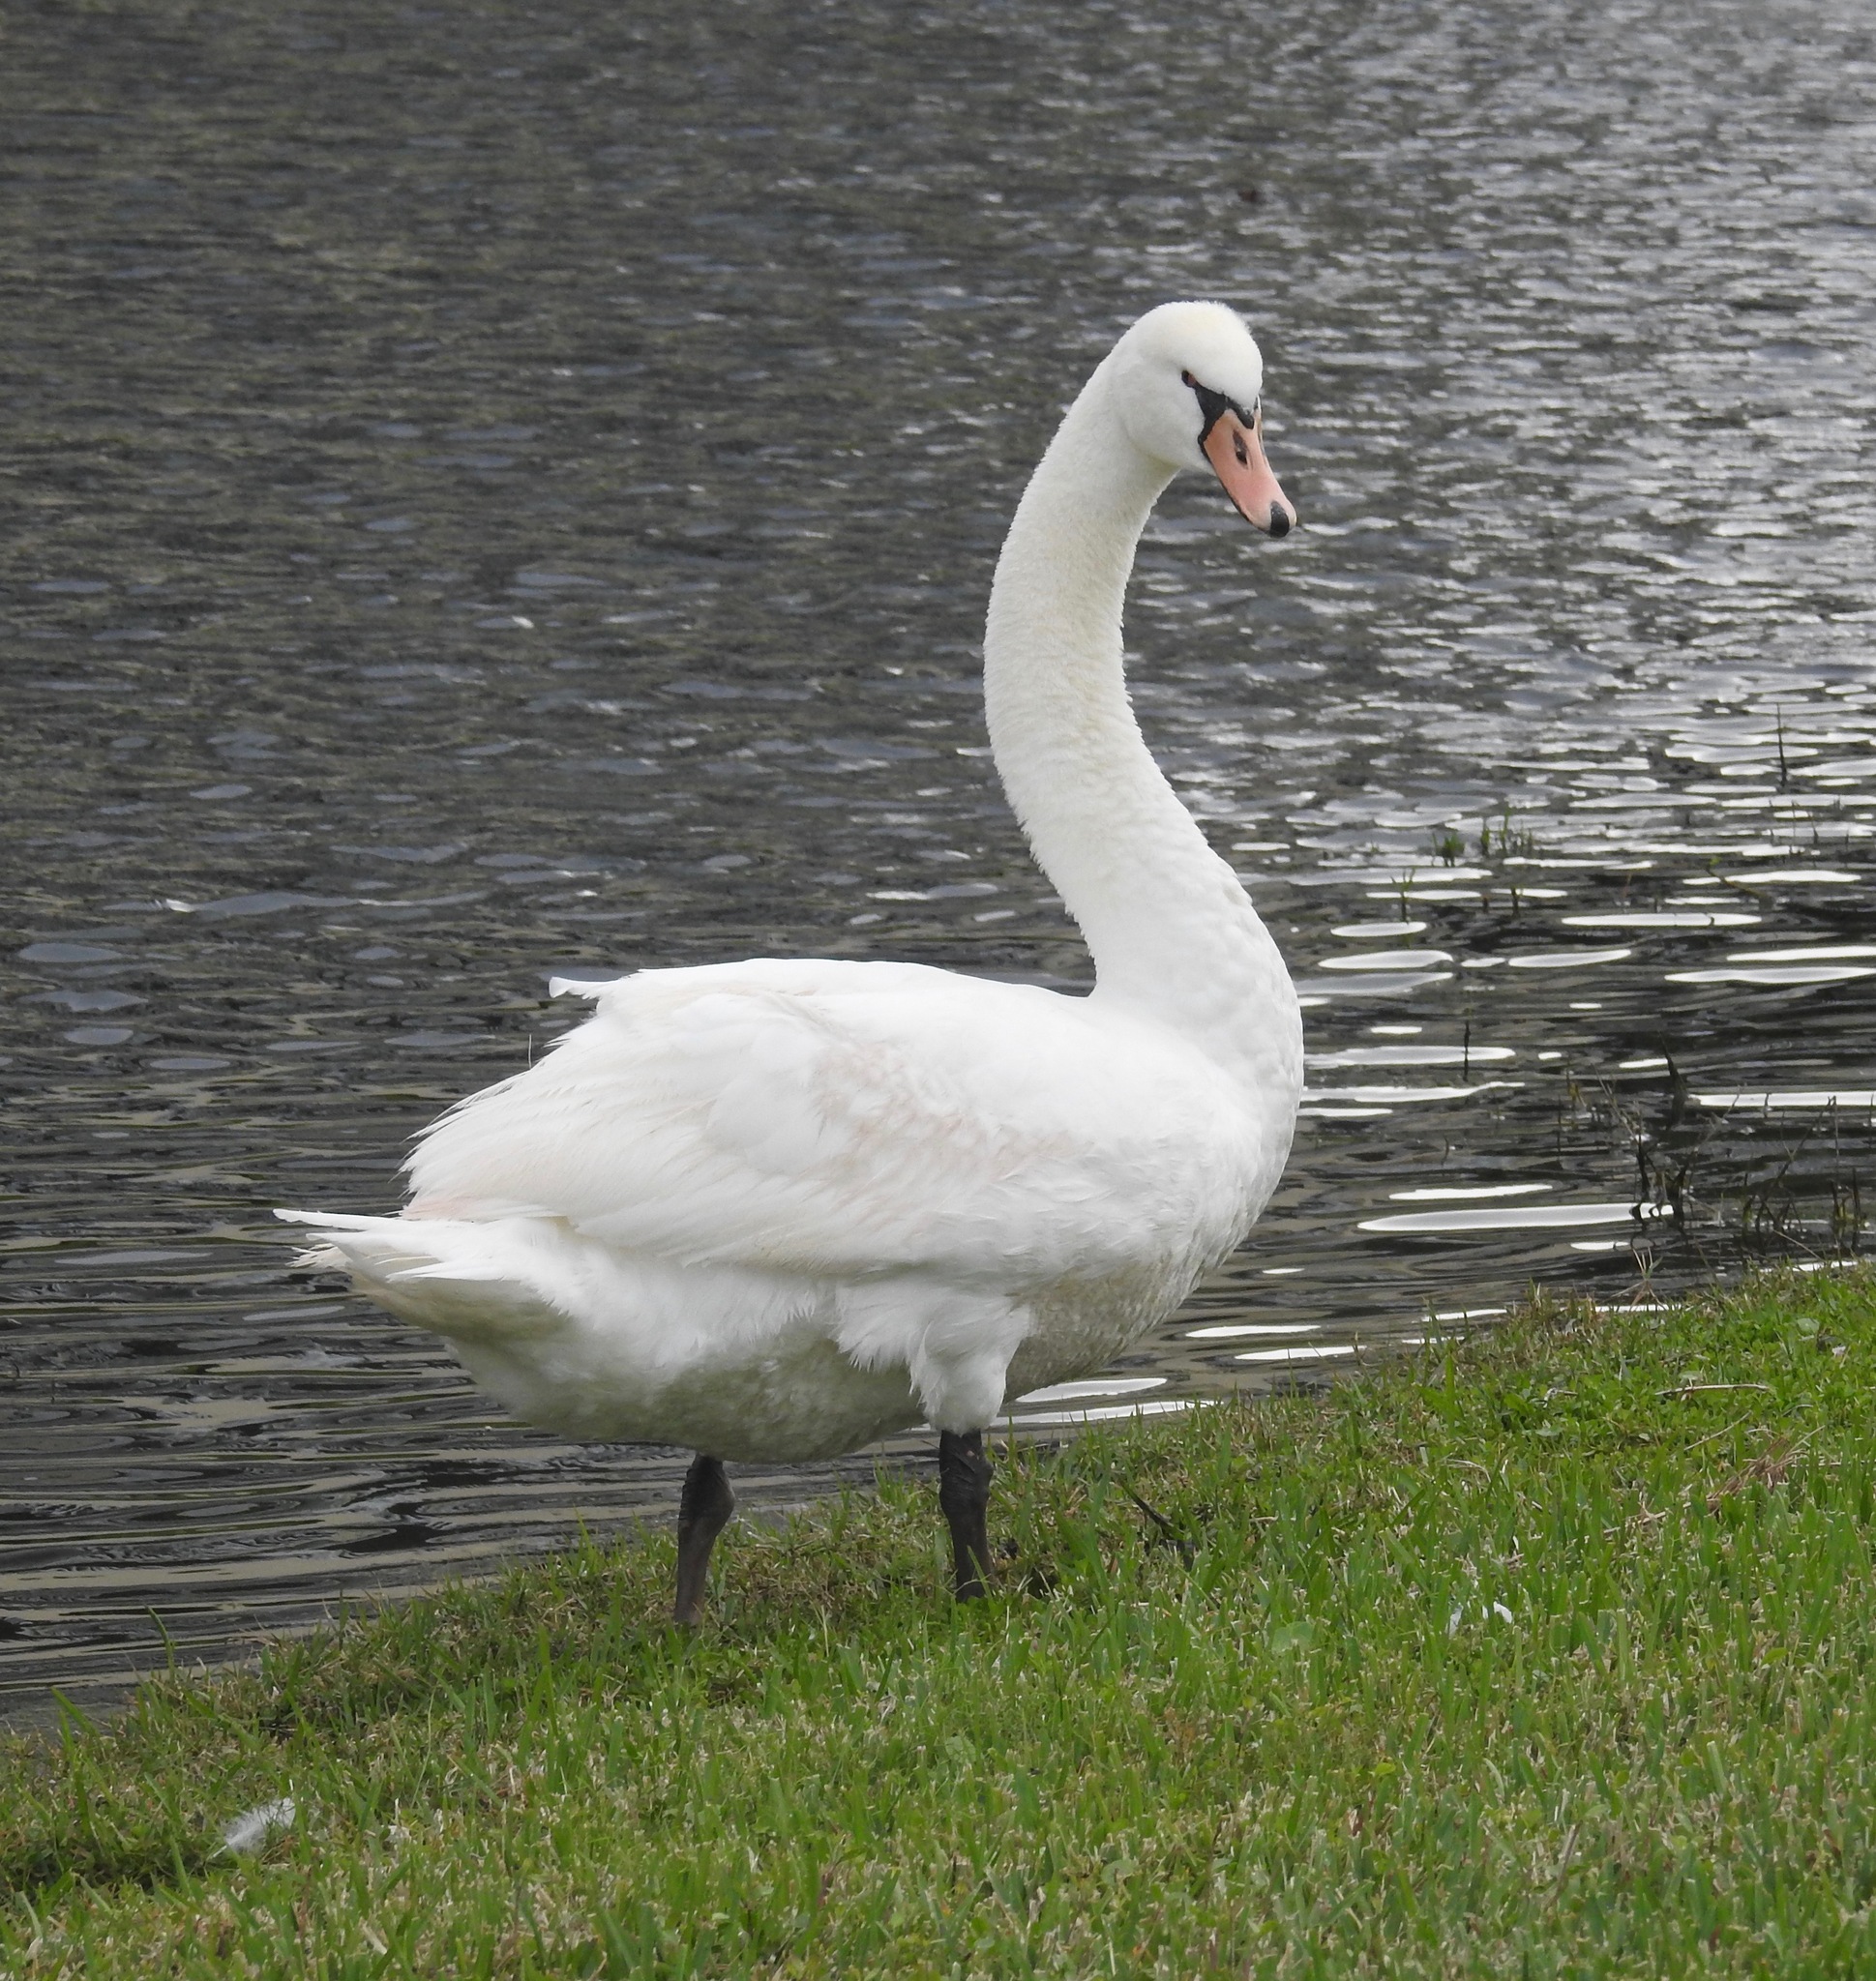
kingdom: Animalia
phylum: Chordata
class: Aves
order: Anseriformes
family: Anatidae
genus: Cygnus
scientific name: Cygnus olor
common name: Mute swan
